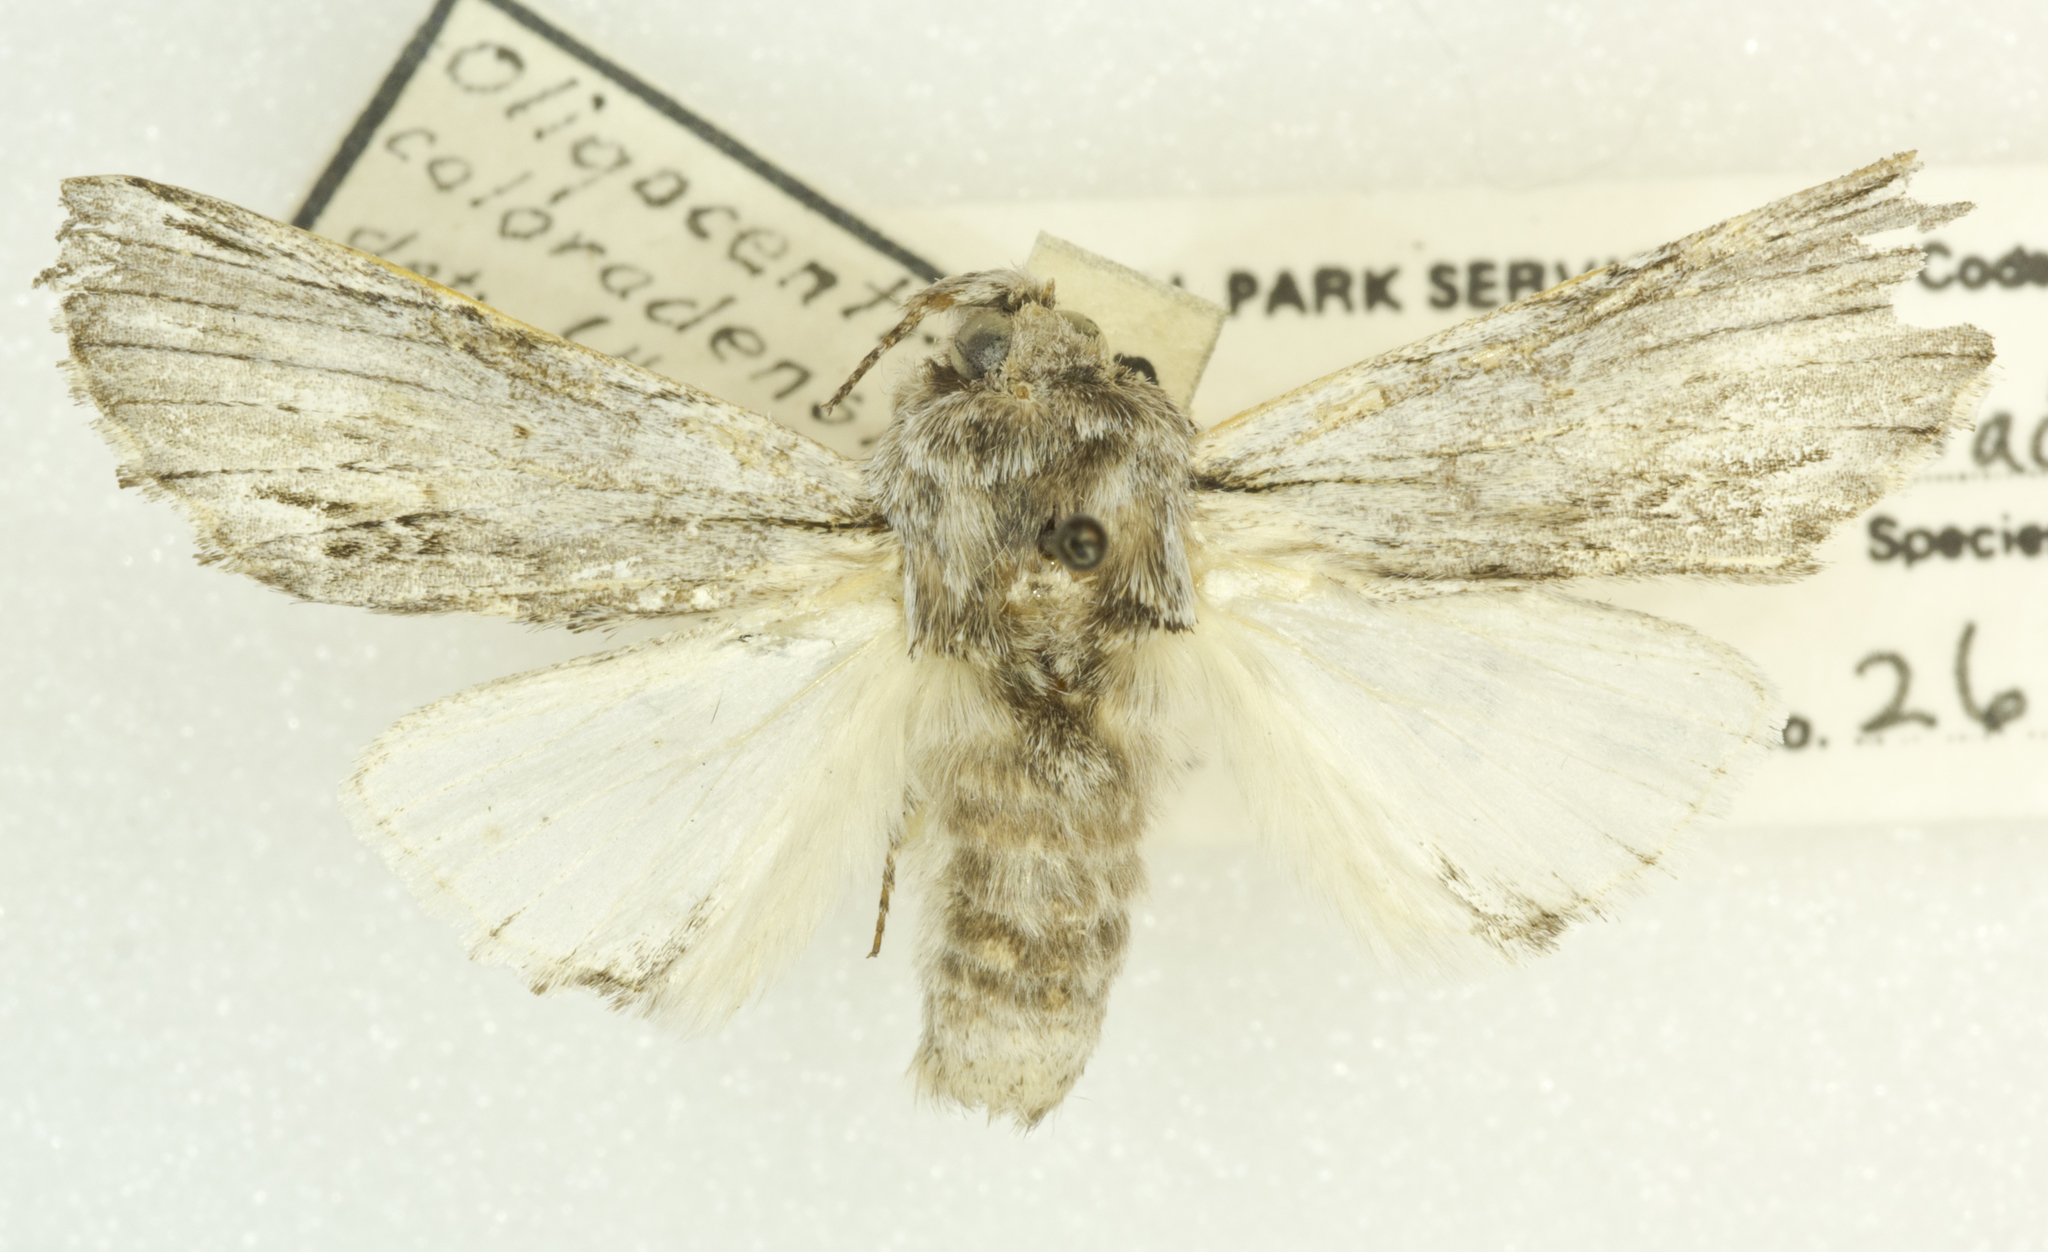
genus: Ianassa
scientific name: Ianassa
